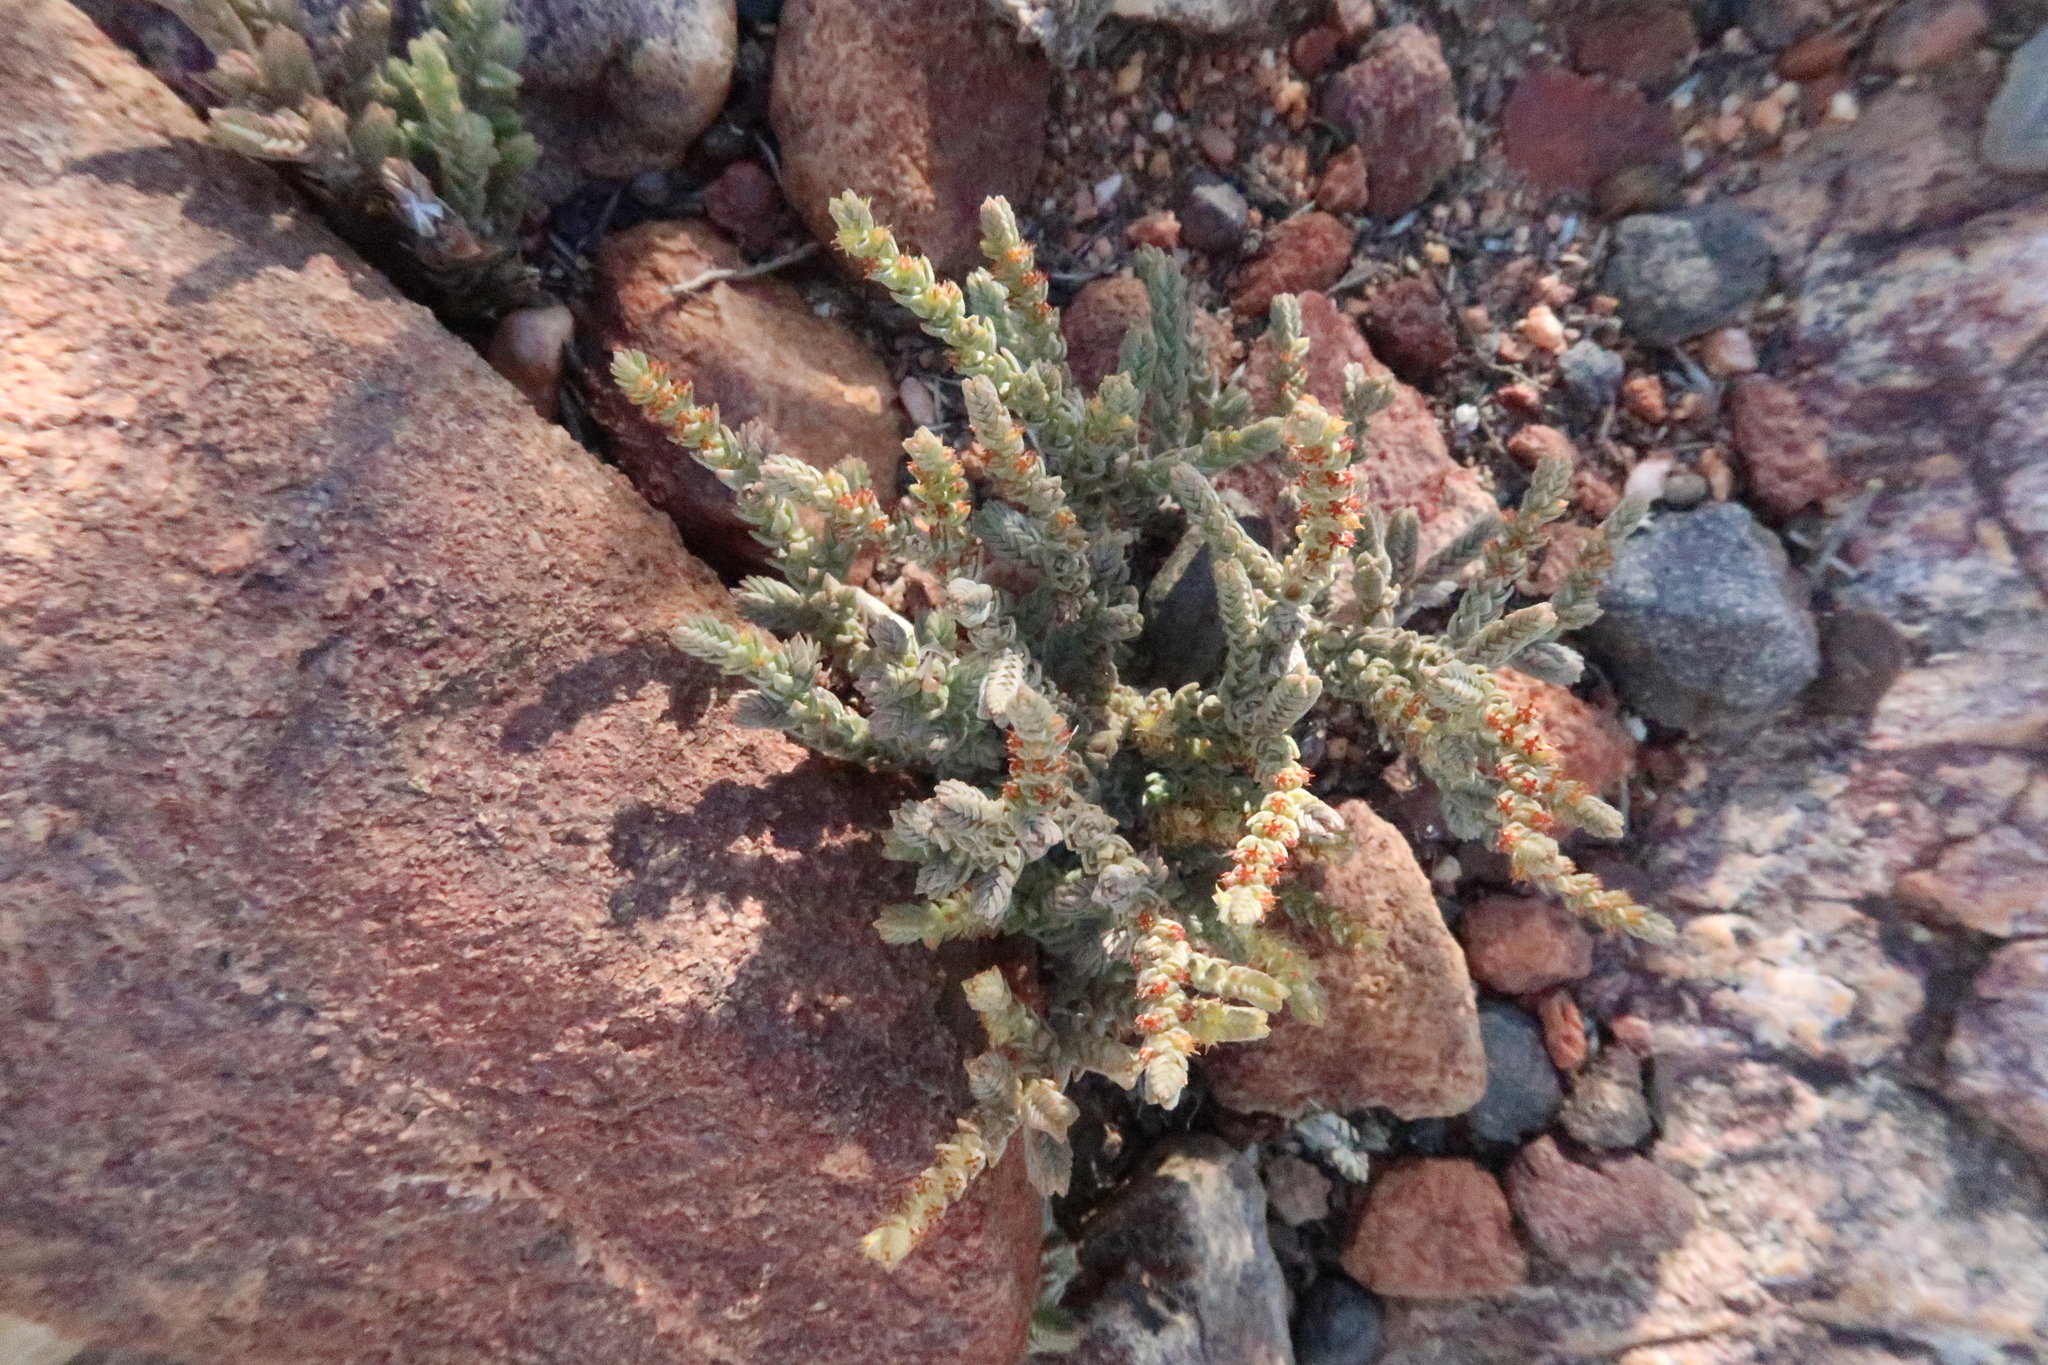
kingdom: Plantae
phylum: Tracheophyta
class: Magnoliopsida
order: Saxifragales
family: Crassulaceae
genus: Crassula
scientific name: Crassula muscosa
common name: Toy-cypress
